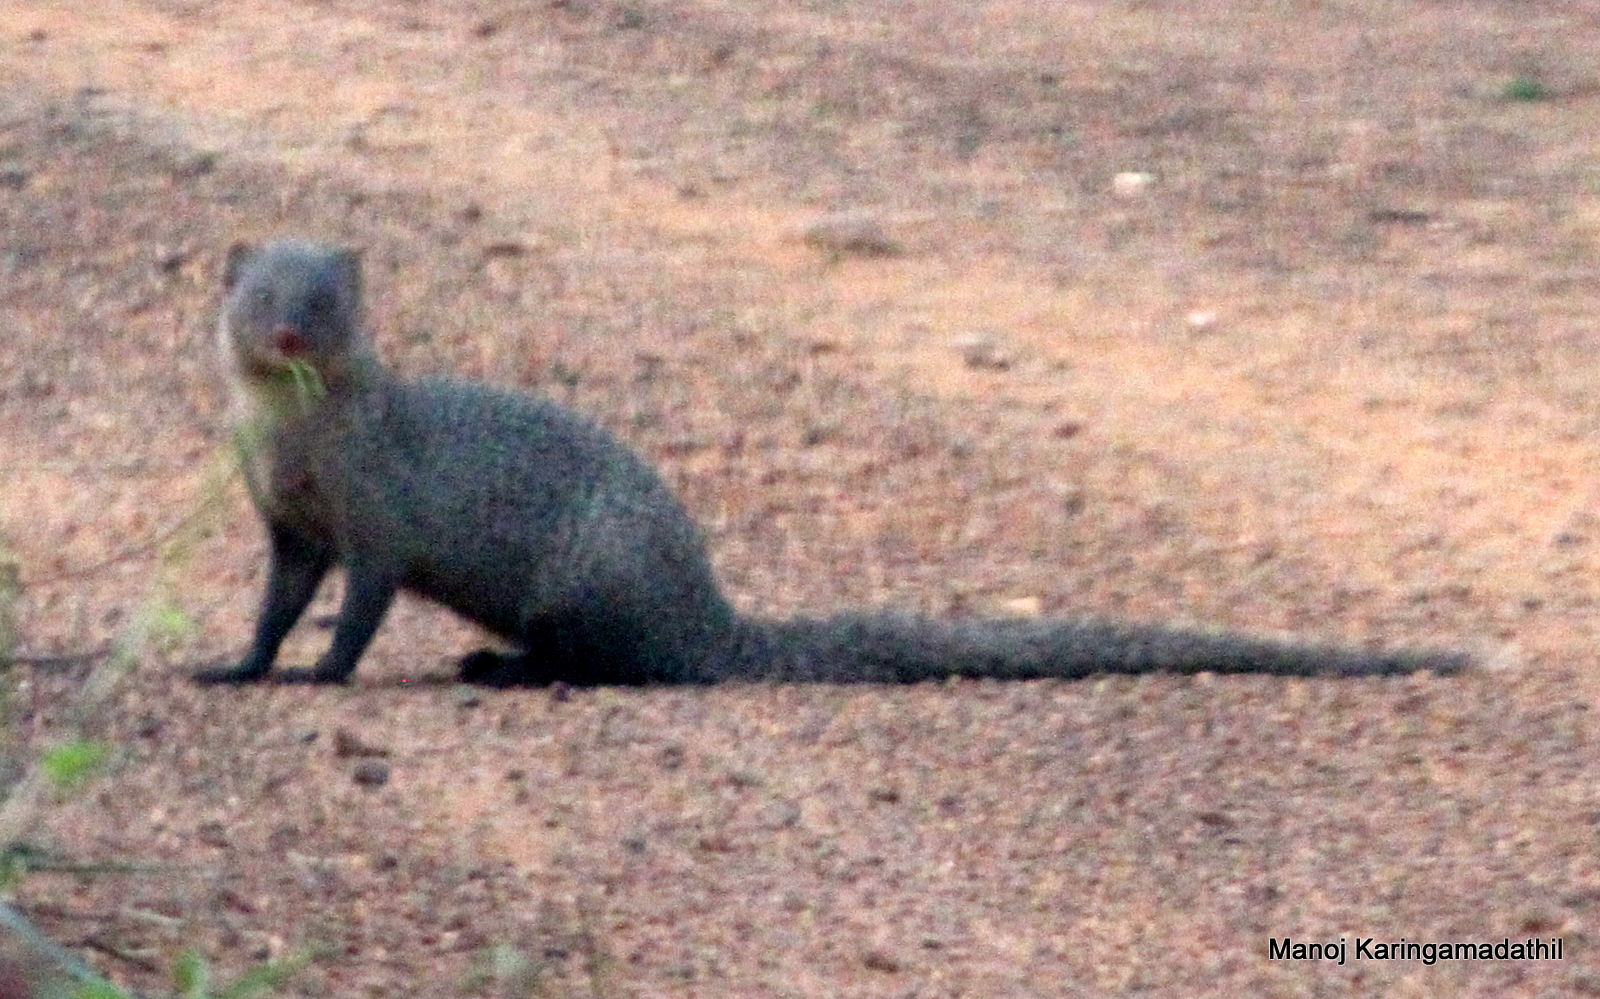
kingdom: Animalia
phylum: Chordata
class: Mammalia
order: Carnivora
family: Herpestidae
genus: Herpestes
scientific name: Herpestes edwardsi
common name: Indian gray mongoose
